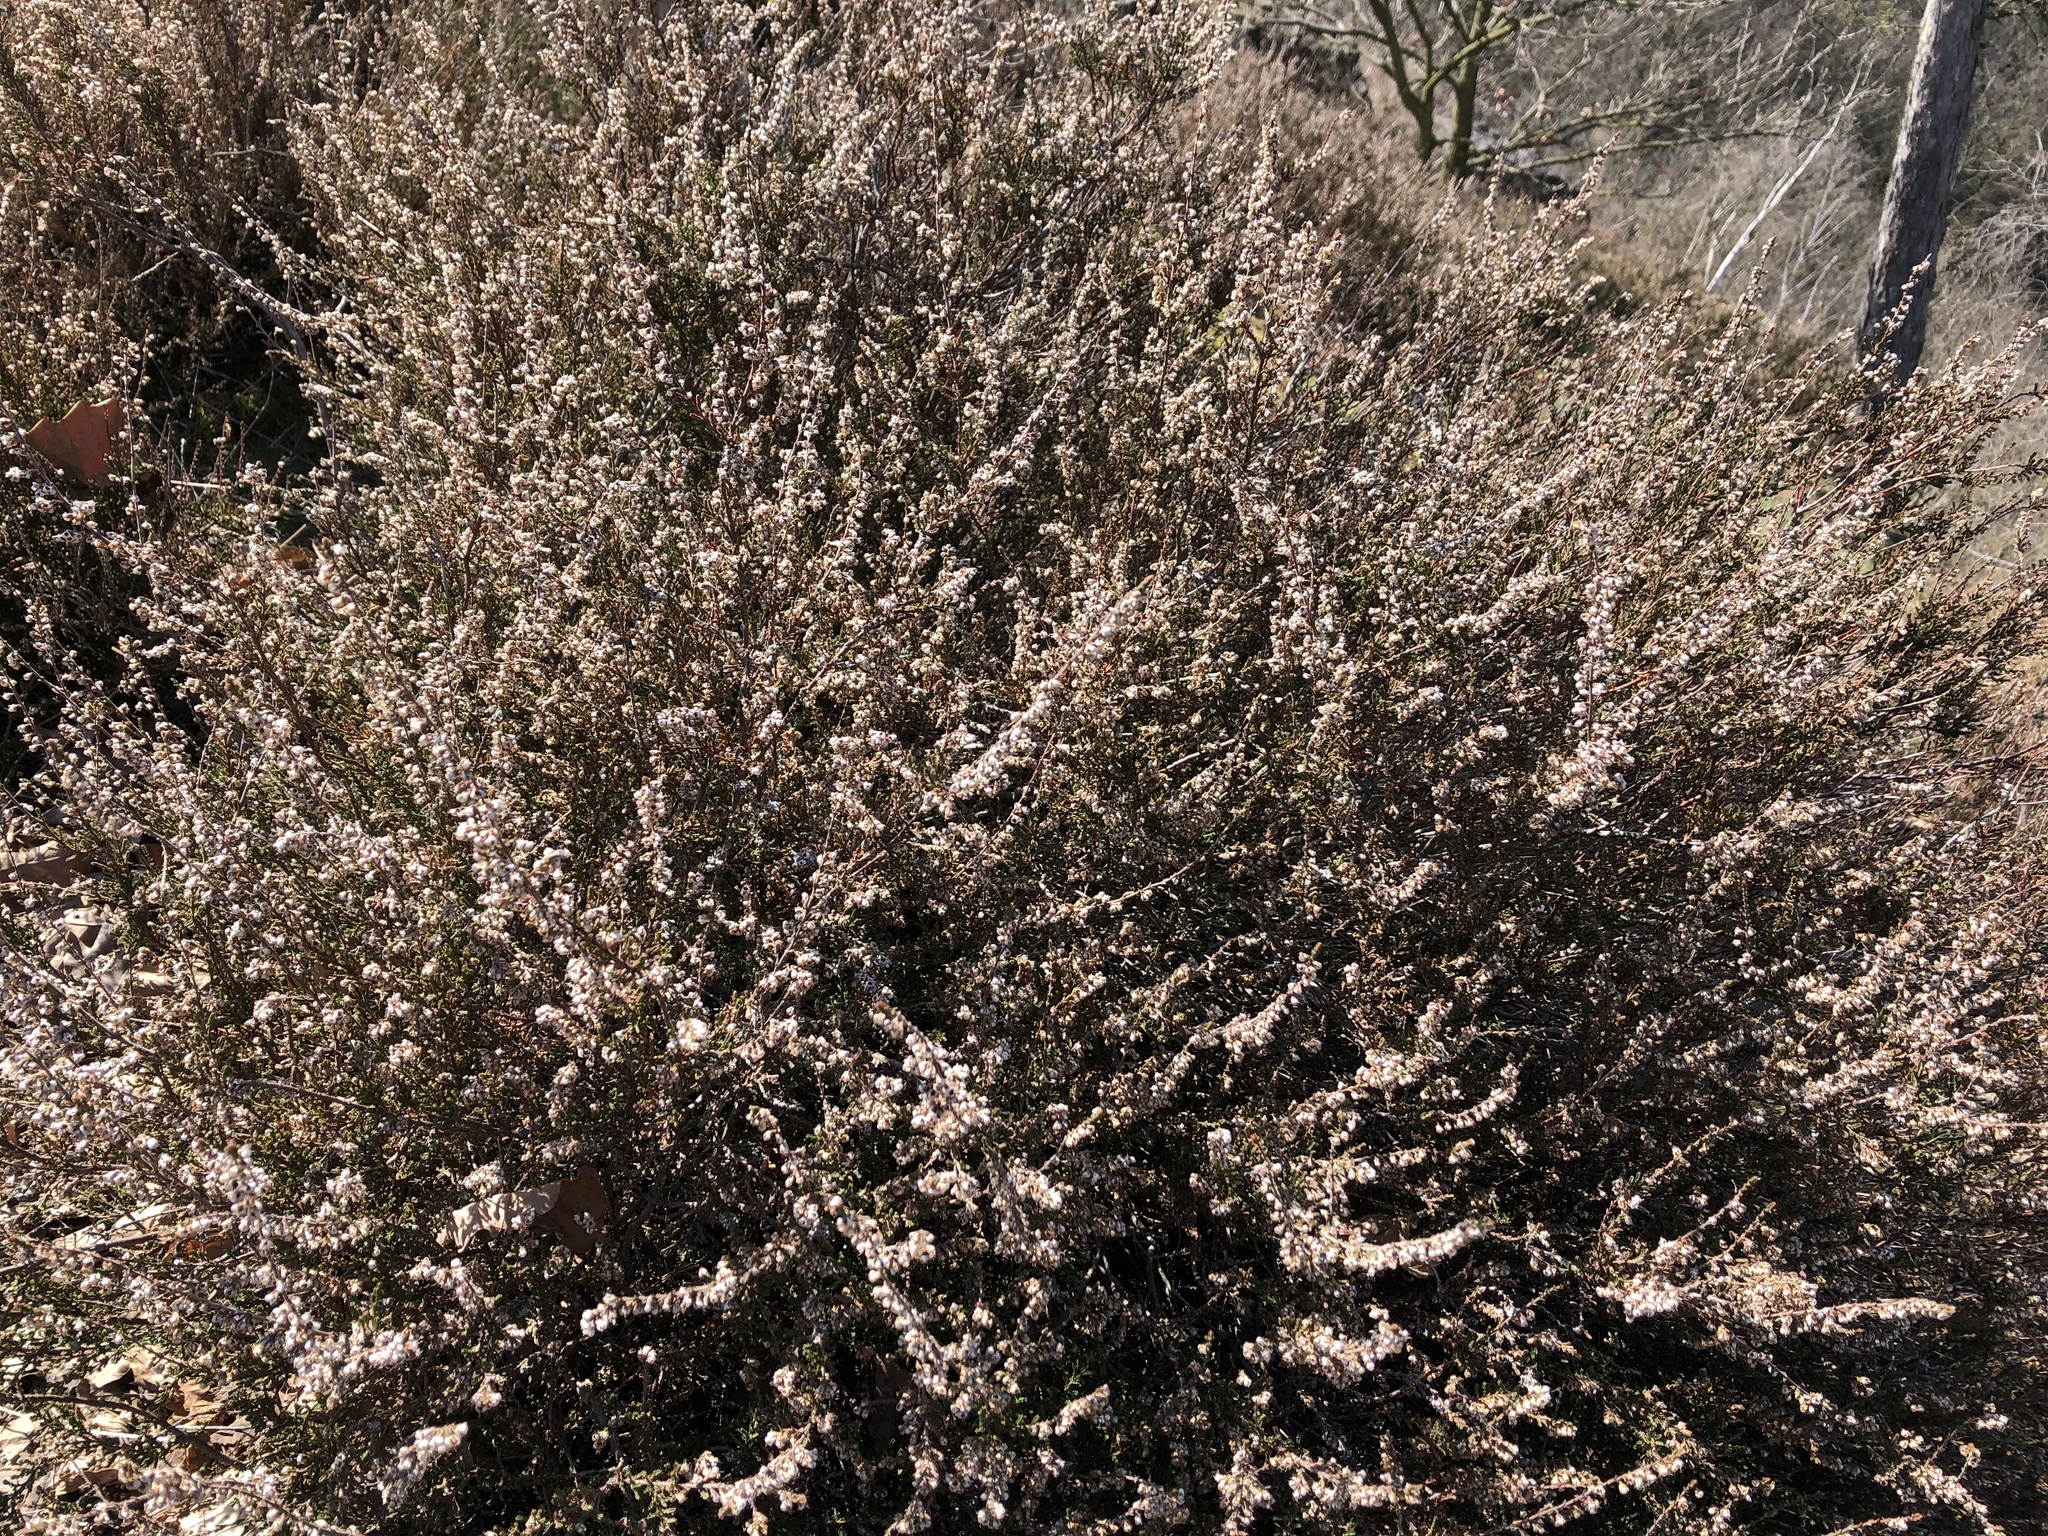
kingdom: Plantae
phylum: Tracheophyta
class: Magnoliopsida
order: Ericales
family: Ericaceae
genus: Calluna
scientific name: Calluna vulgaris
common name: Heather
